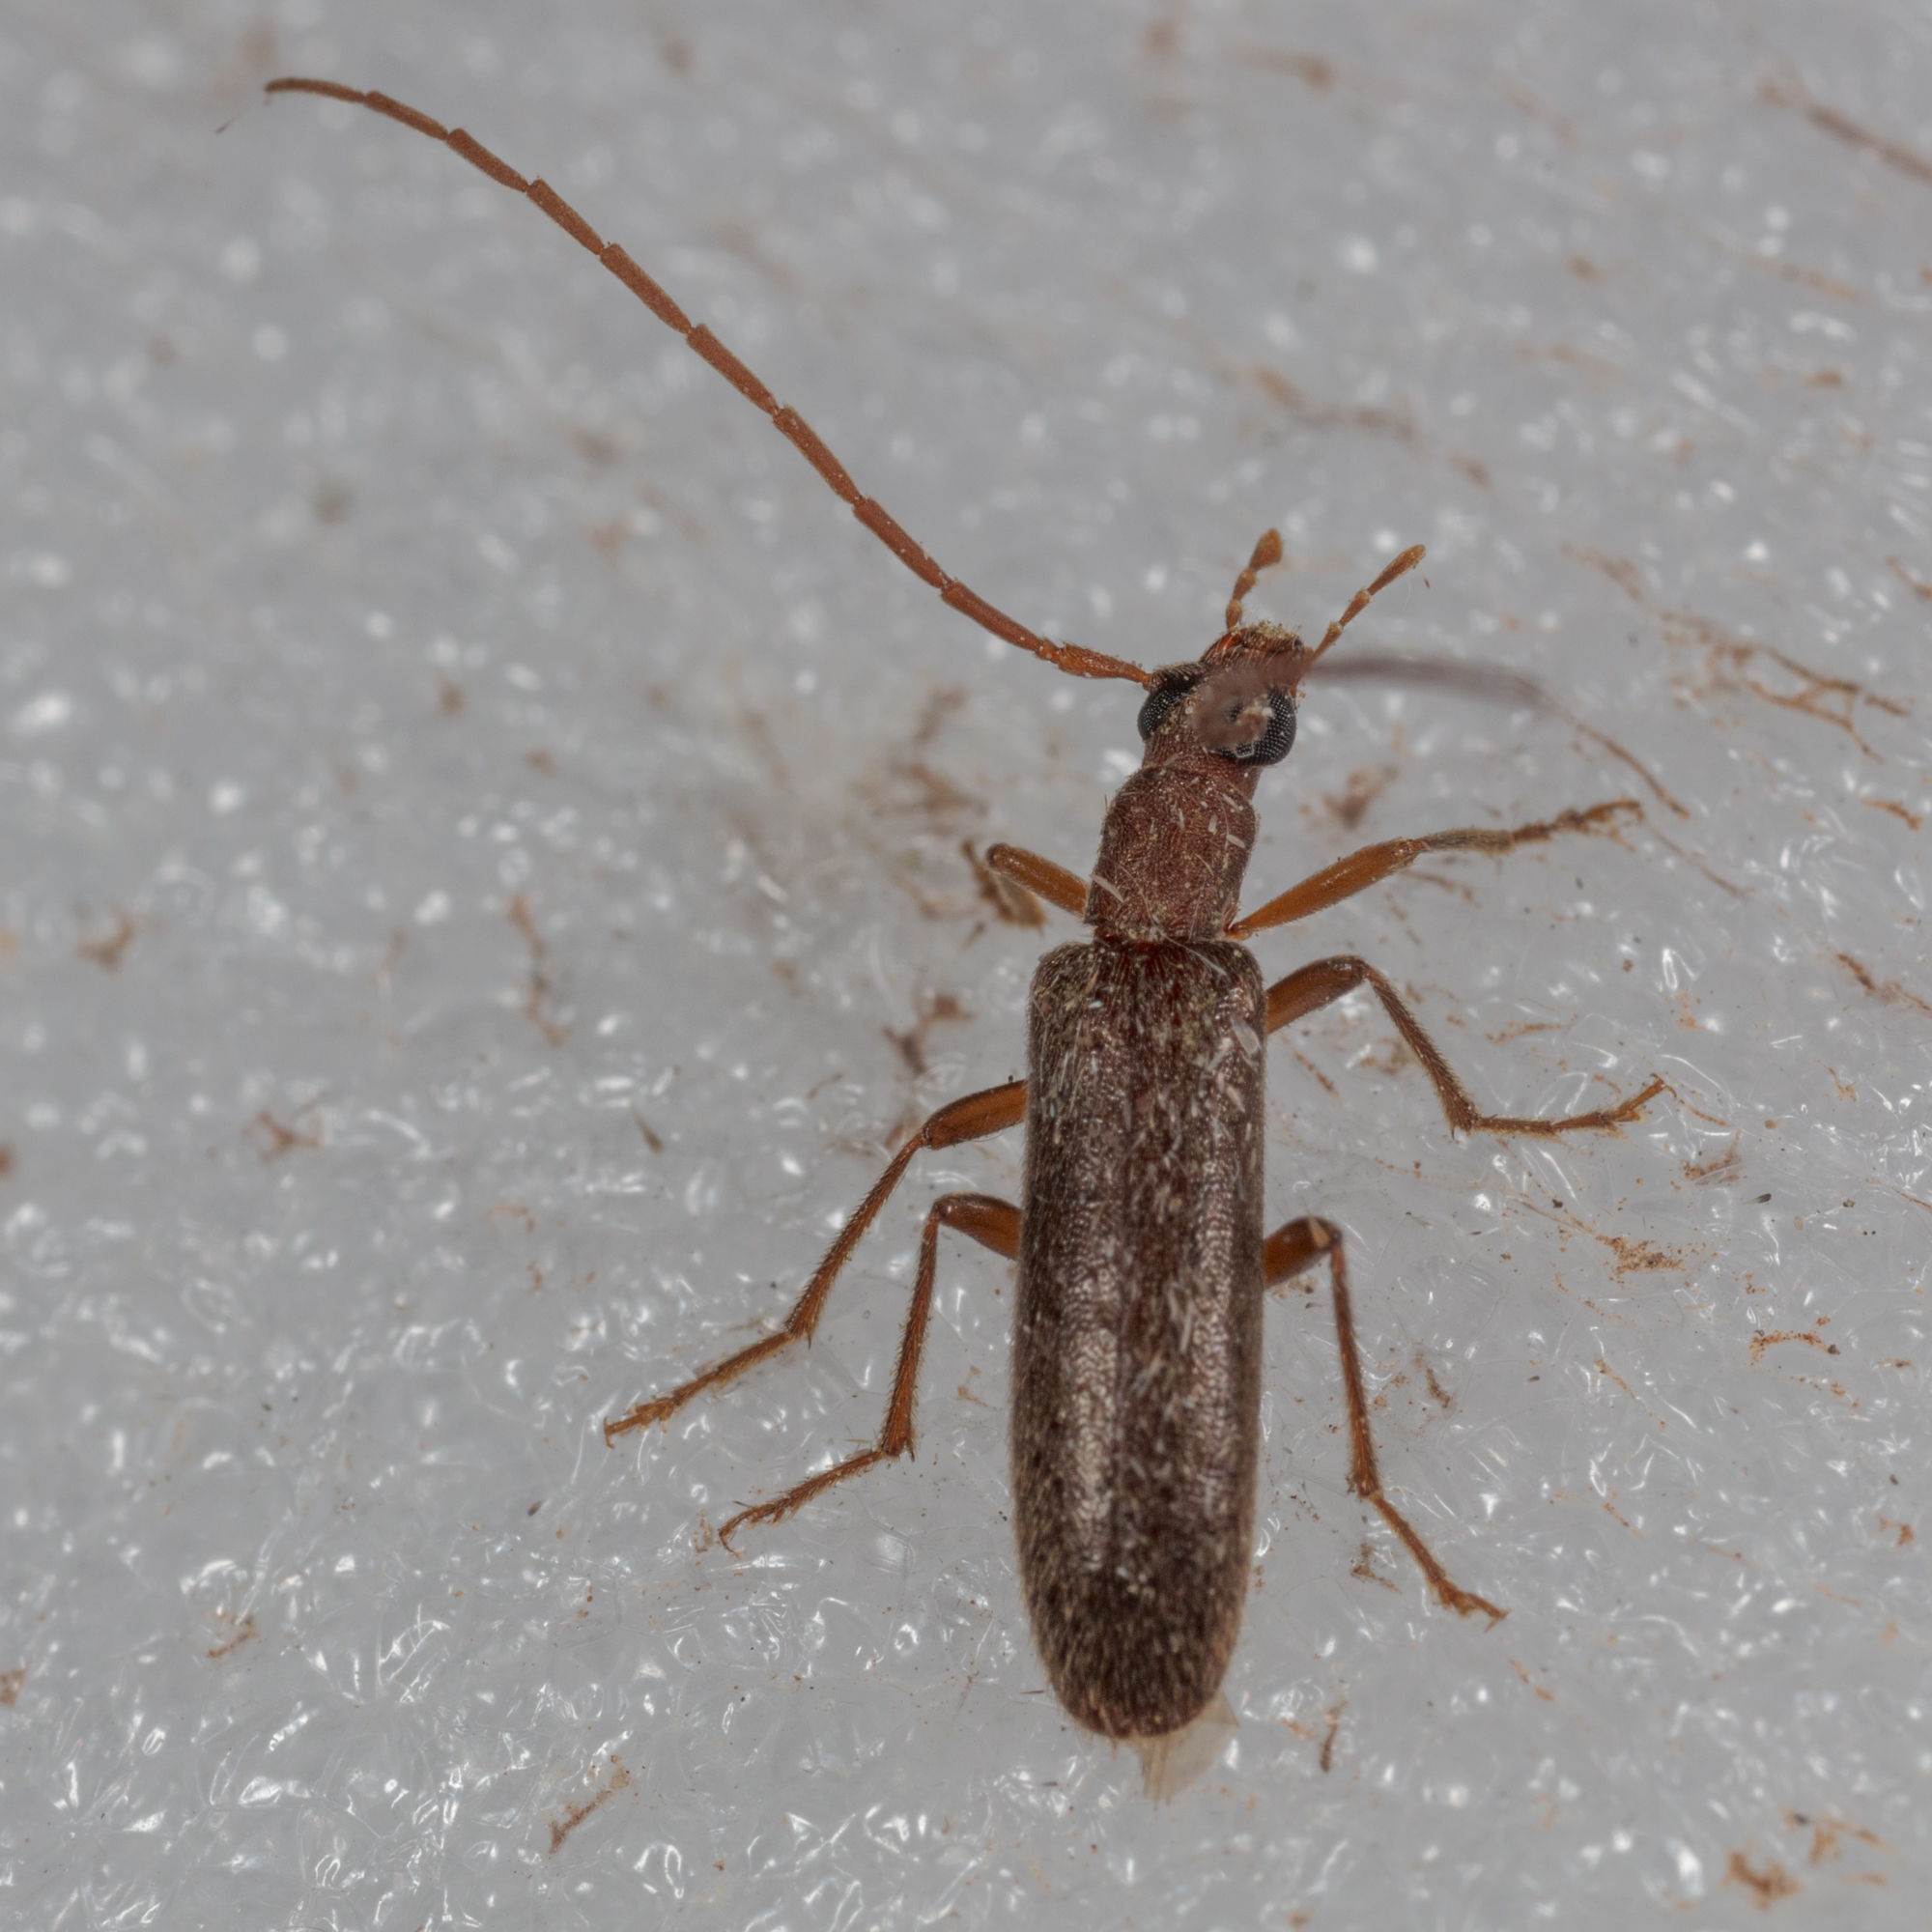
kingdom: Animalia
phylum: Arthropoda
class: Insecta
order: Coleoptera
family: Oedemeridae
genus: Sparedrus
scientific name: Sparedrus aspersus
